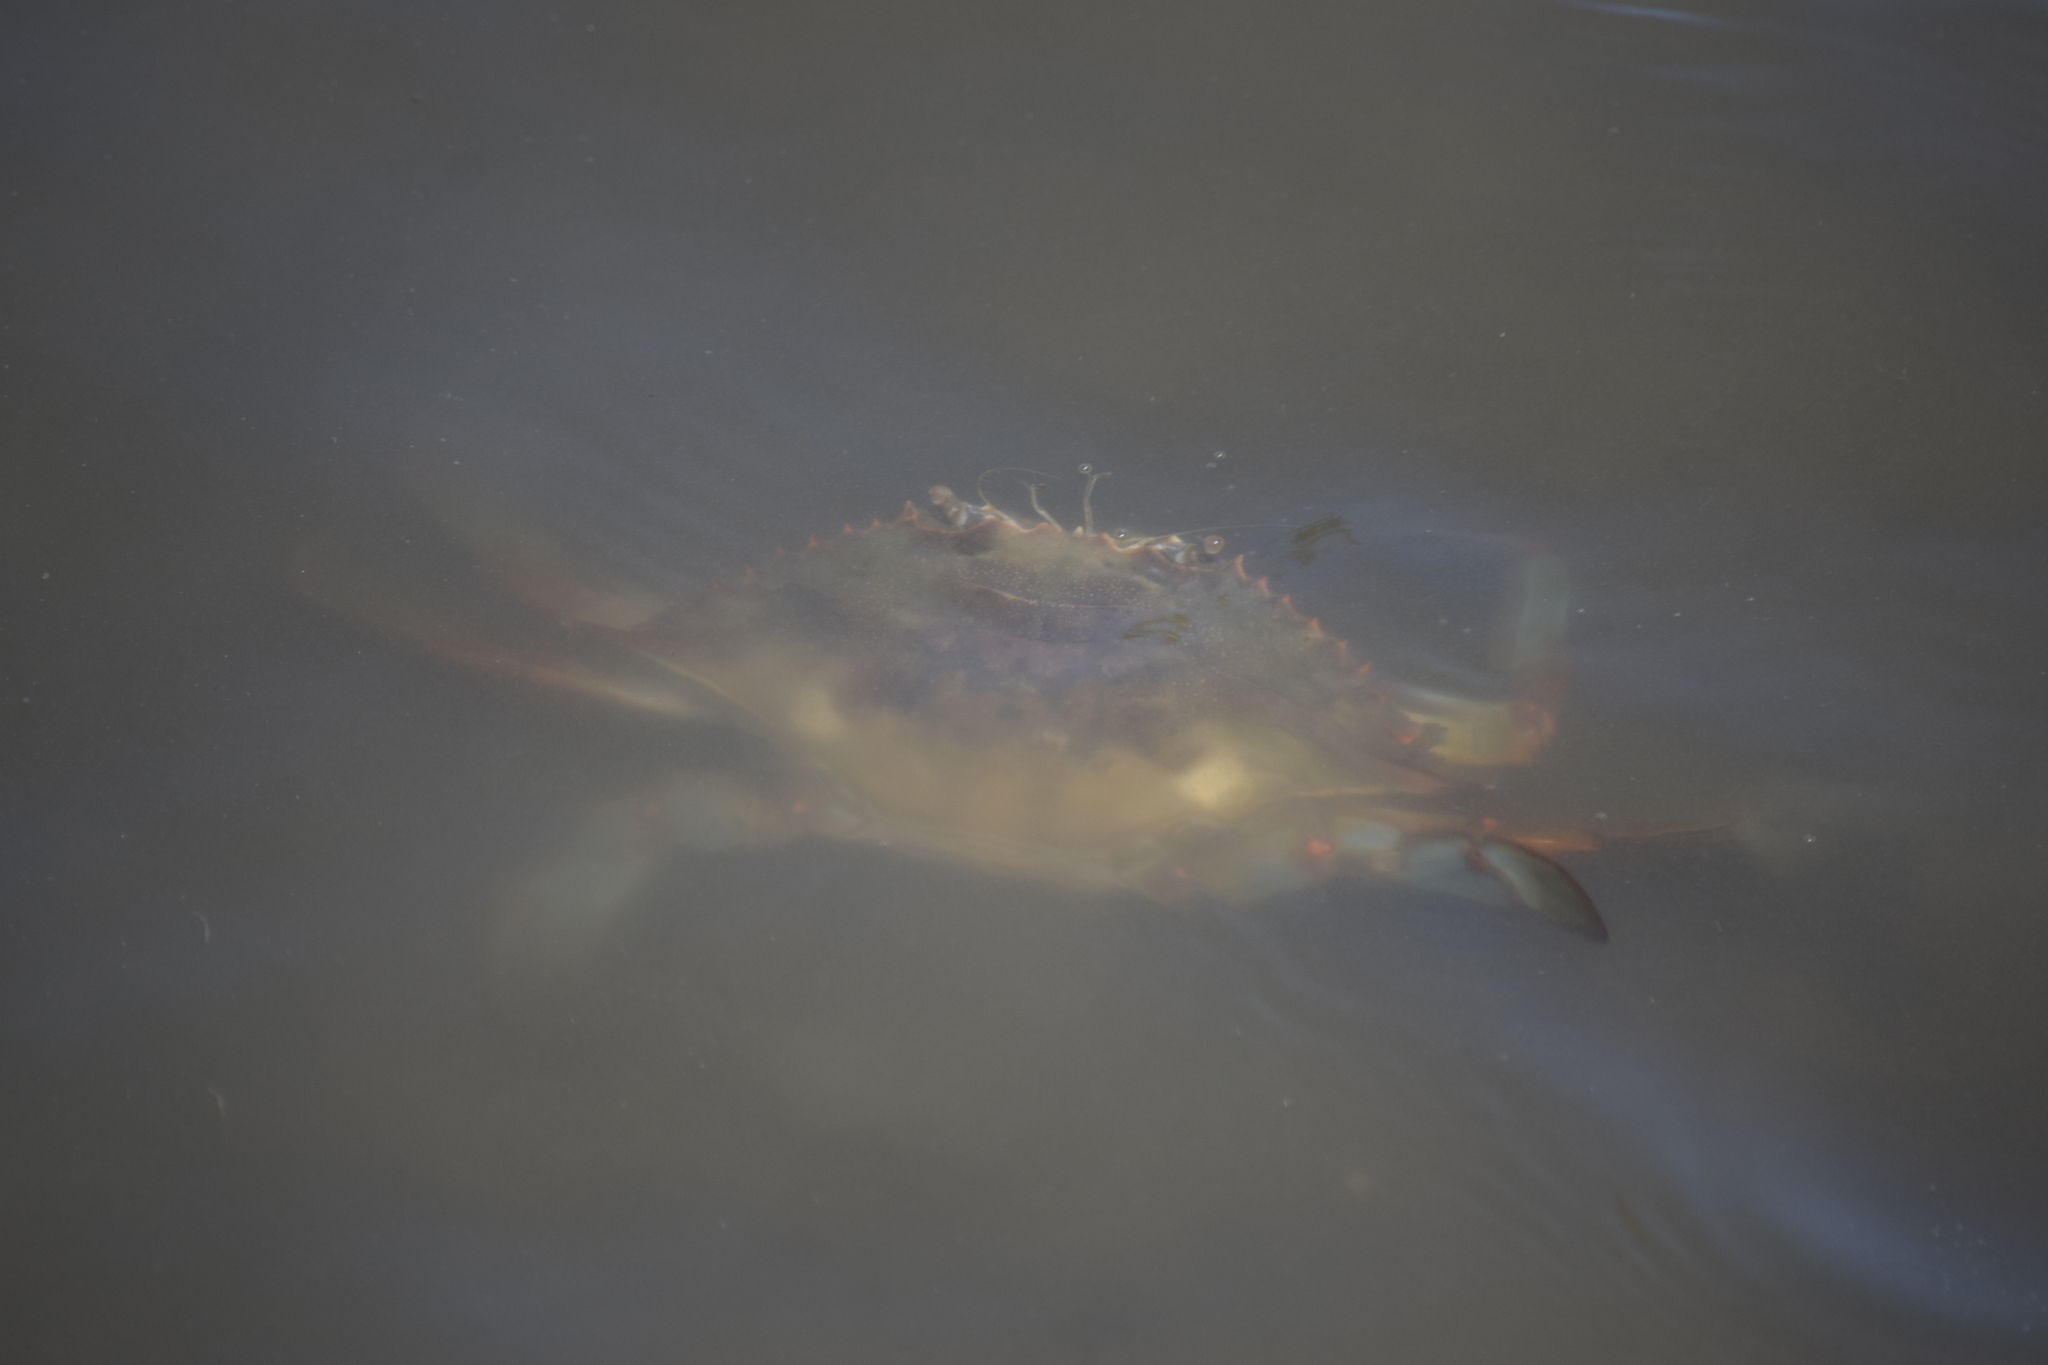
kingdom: Animalia
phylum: Arthropoda
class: Malacostraca
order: Decapoda
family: Portunidae
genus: Callinectes
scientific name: Callinectes sapidus
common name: Blue crab
